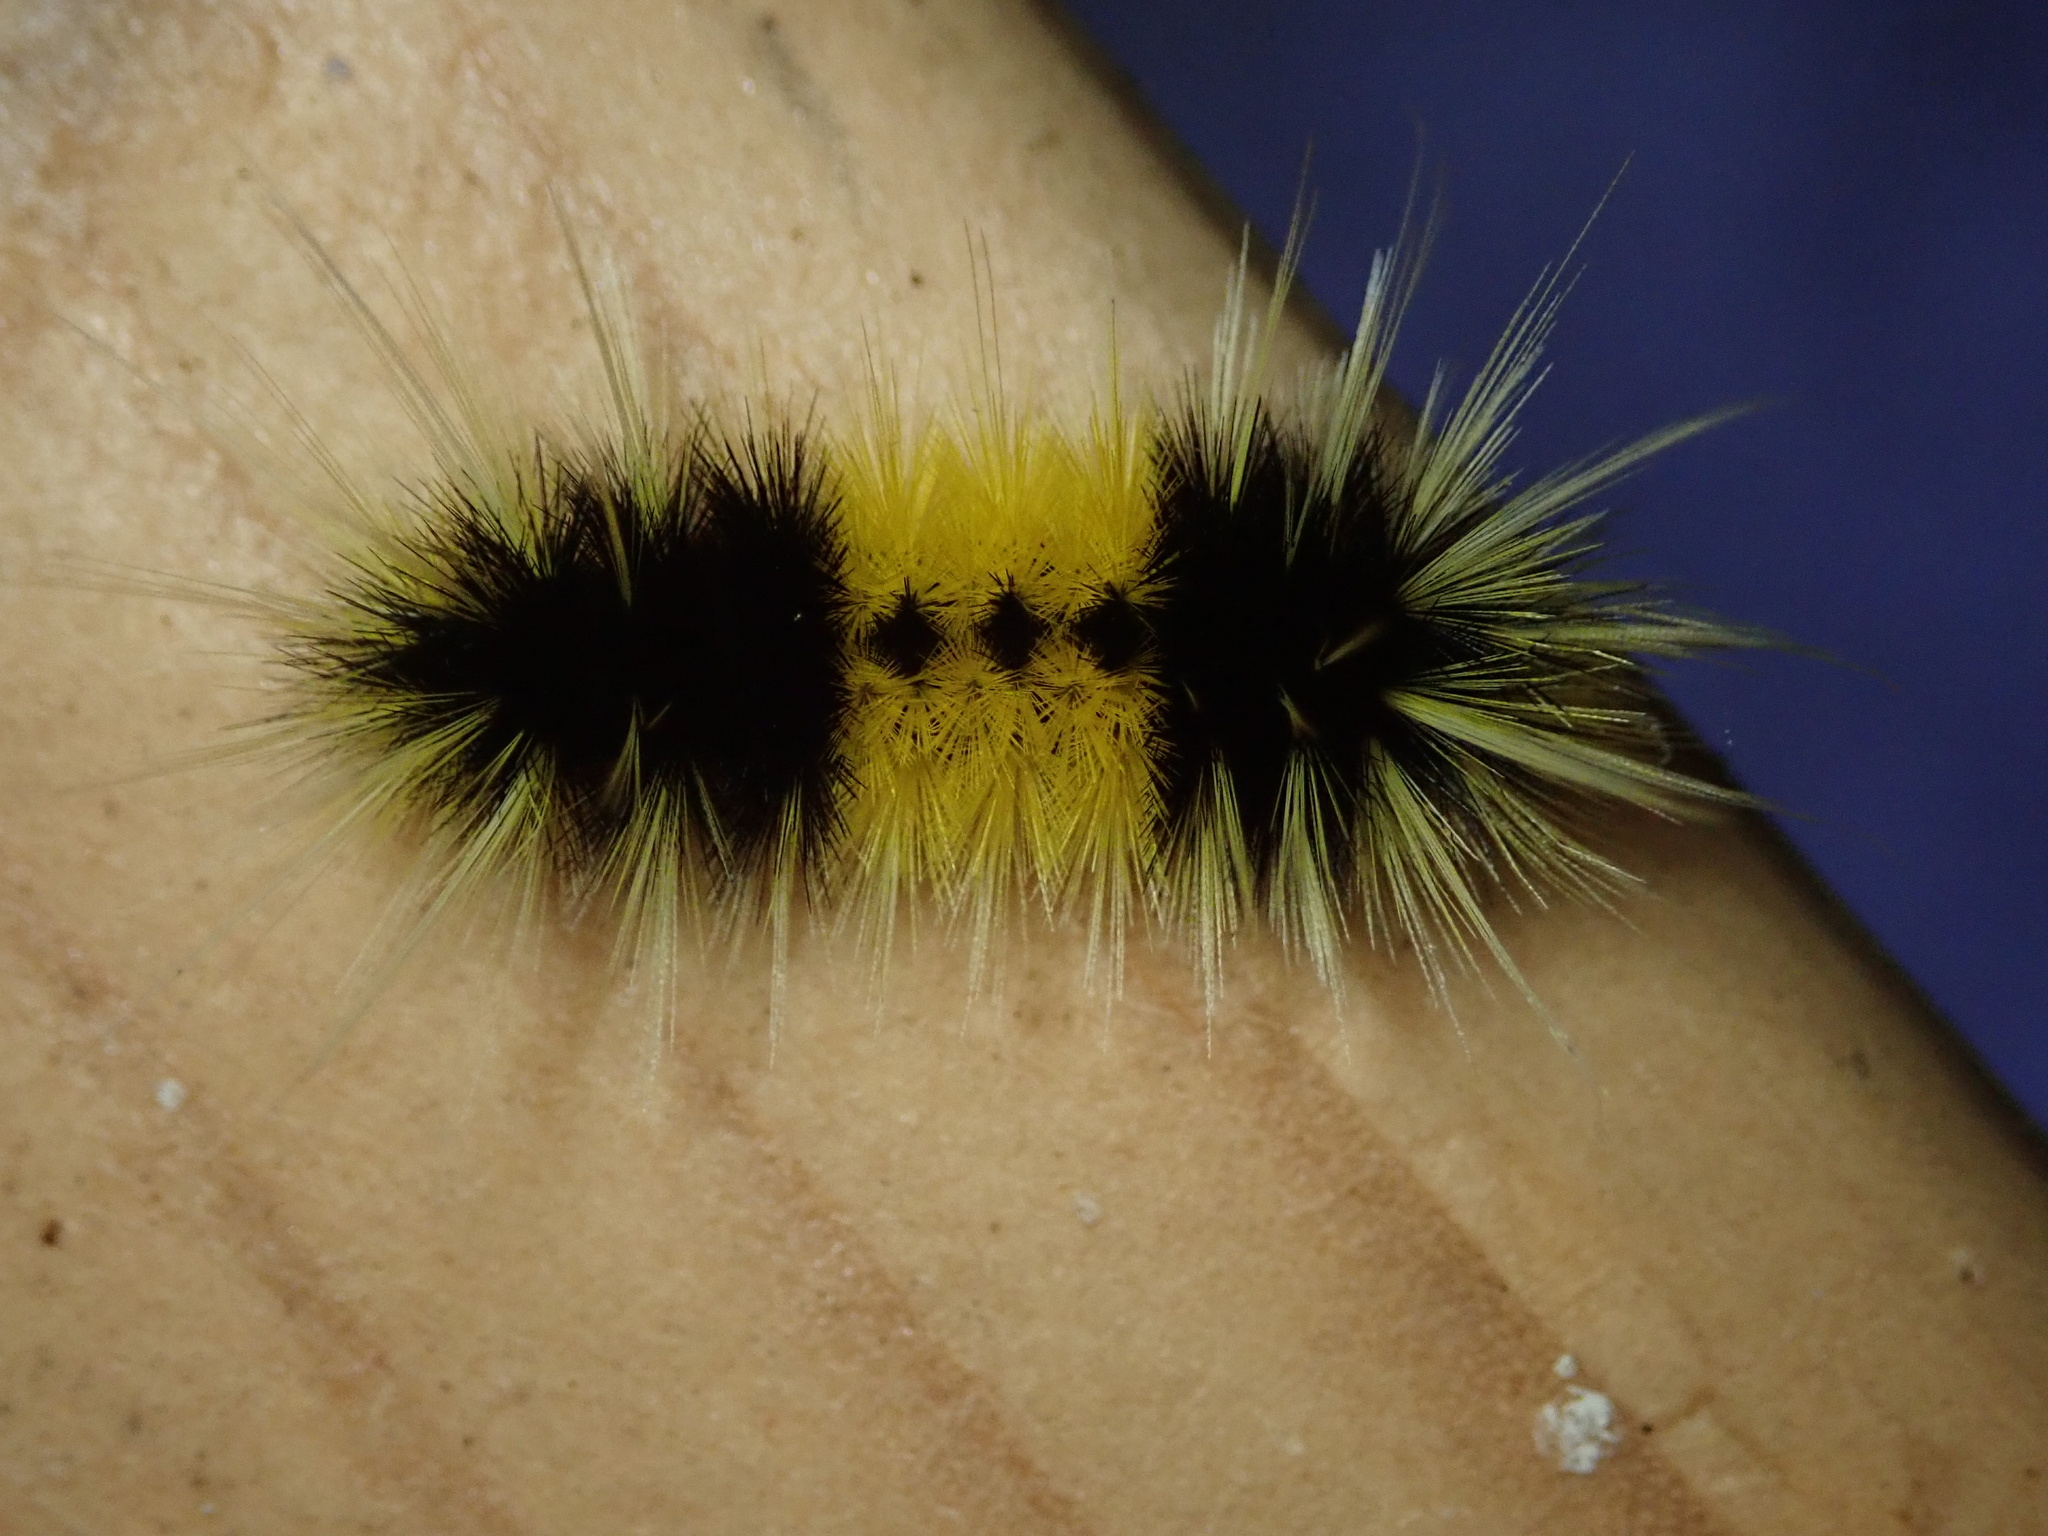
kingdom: Animalia
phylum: Arthropoda
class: Insecta
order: Lepidoptera
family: Erebidae
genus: Lophocampa
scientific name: Lophocampa maculata
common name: Spotted tussock moth
